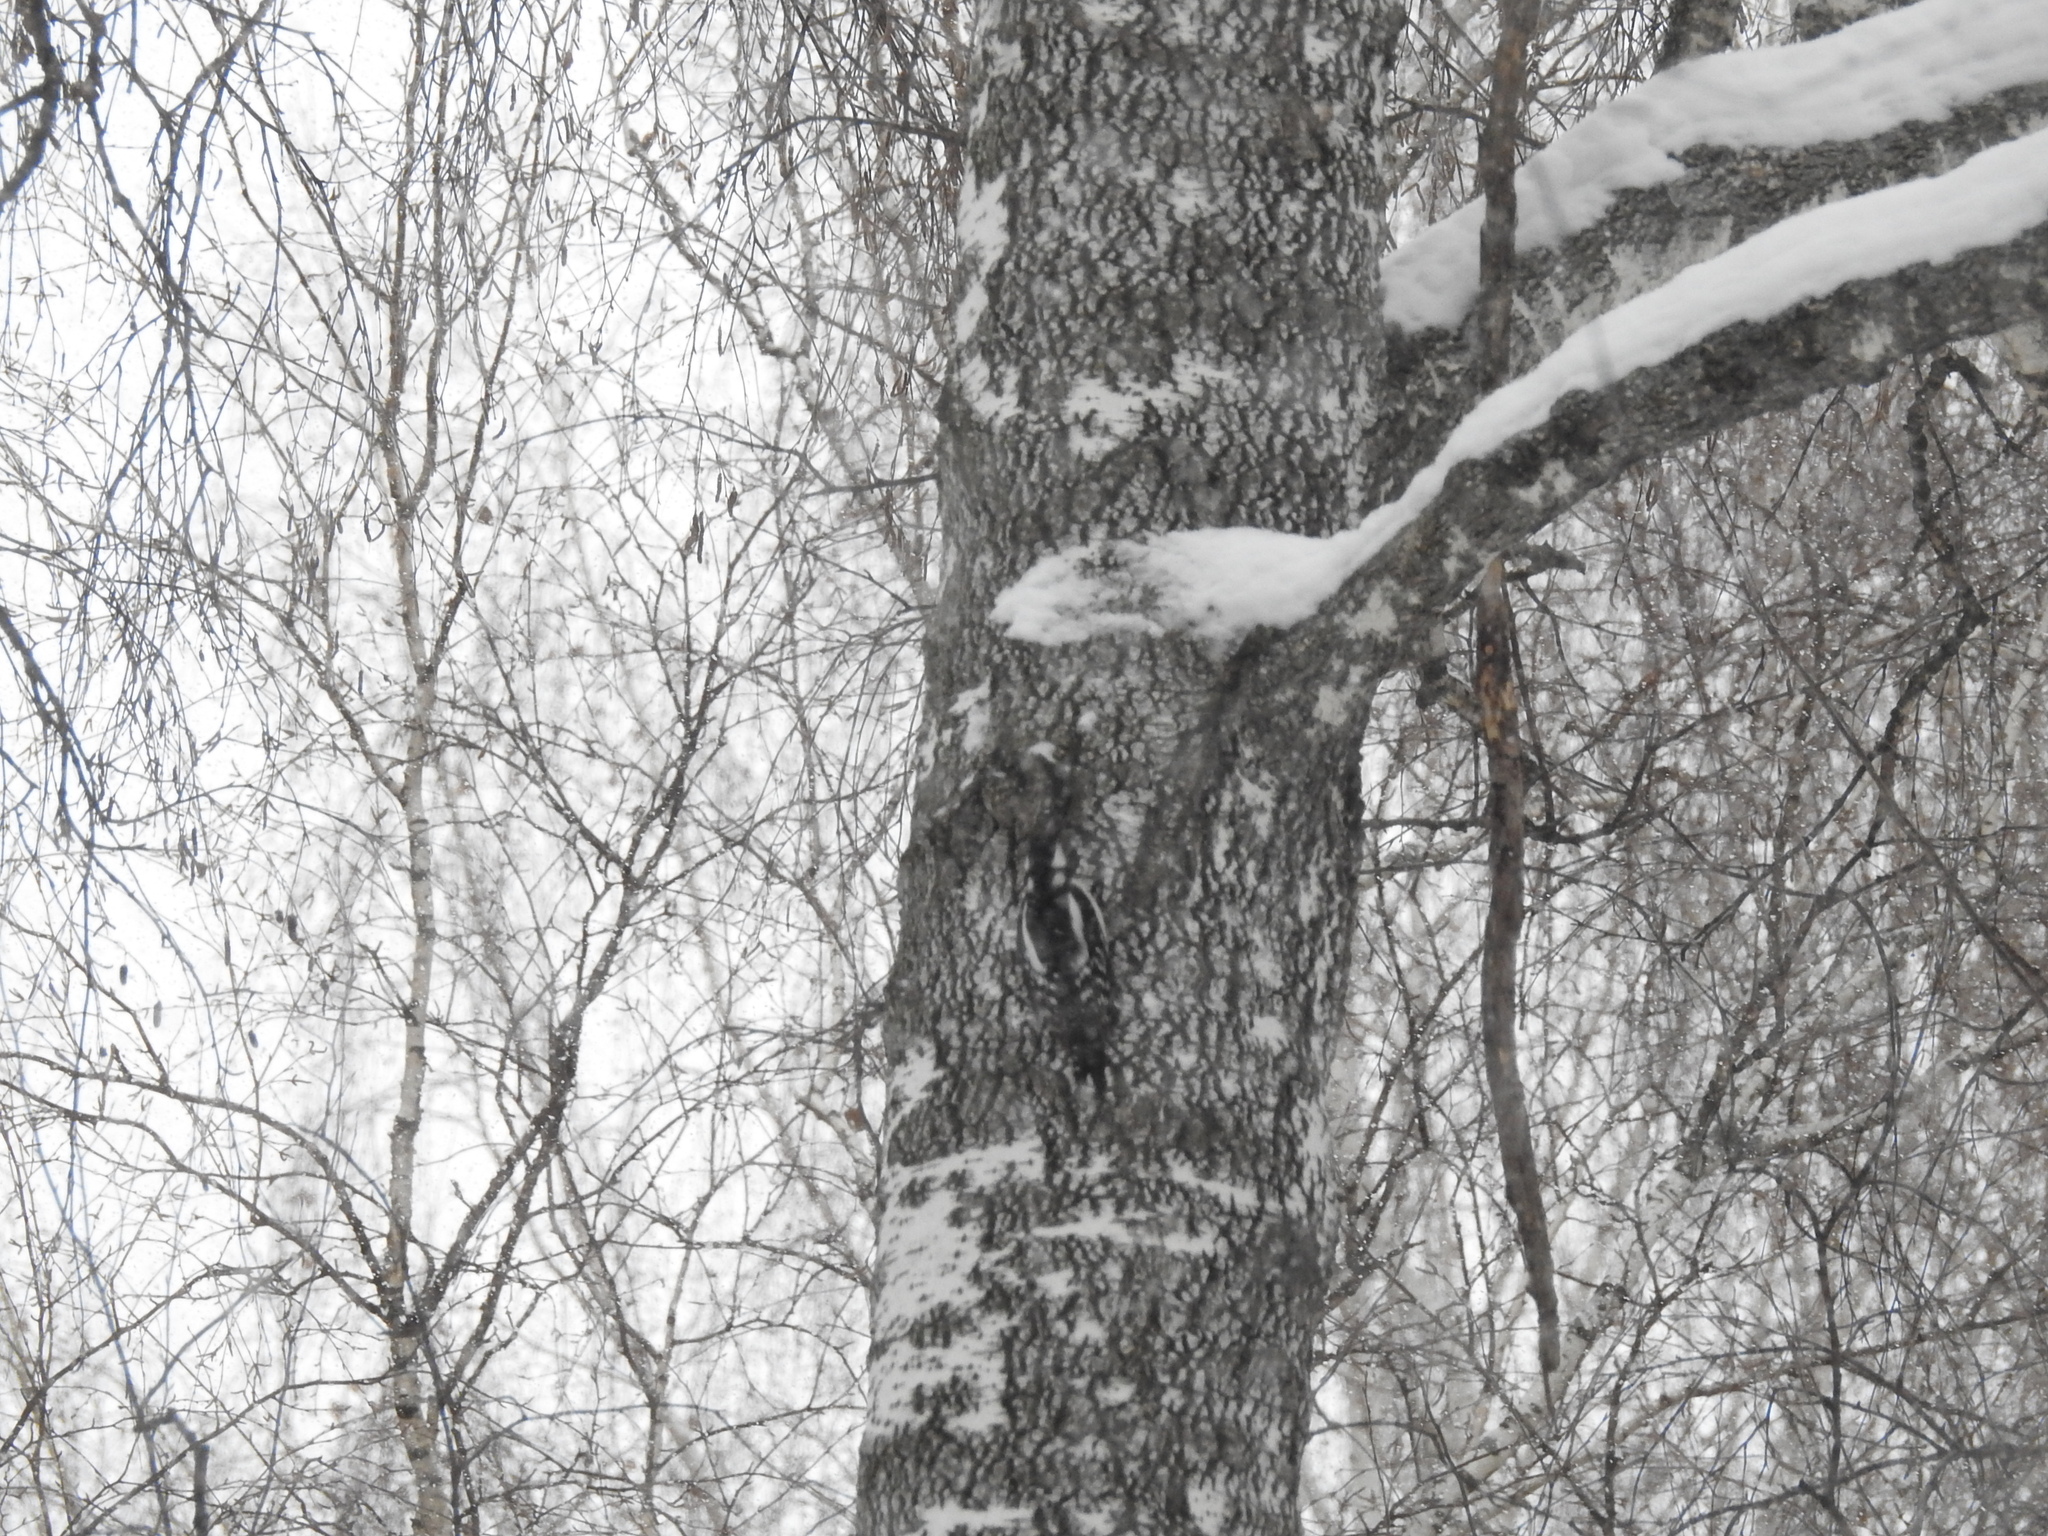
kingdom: Animalia
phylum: Chordata
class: Aves
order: Piciformes
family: Picidae
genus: Dendrocopos
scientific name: Dendrocopos major
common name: Great spotted woodpecker
